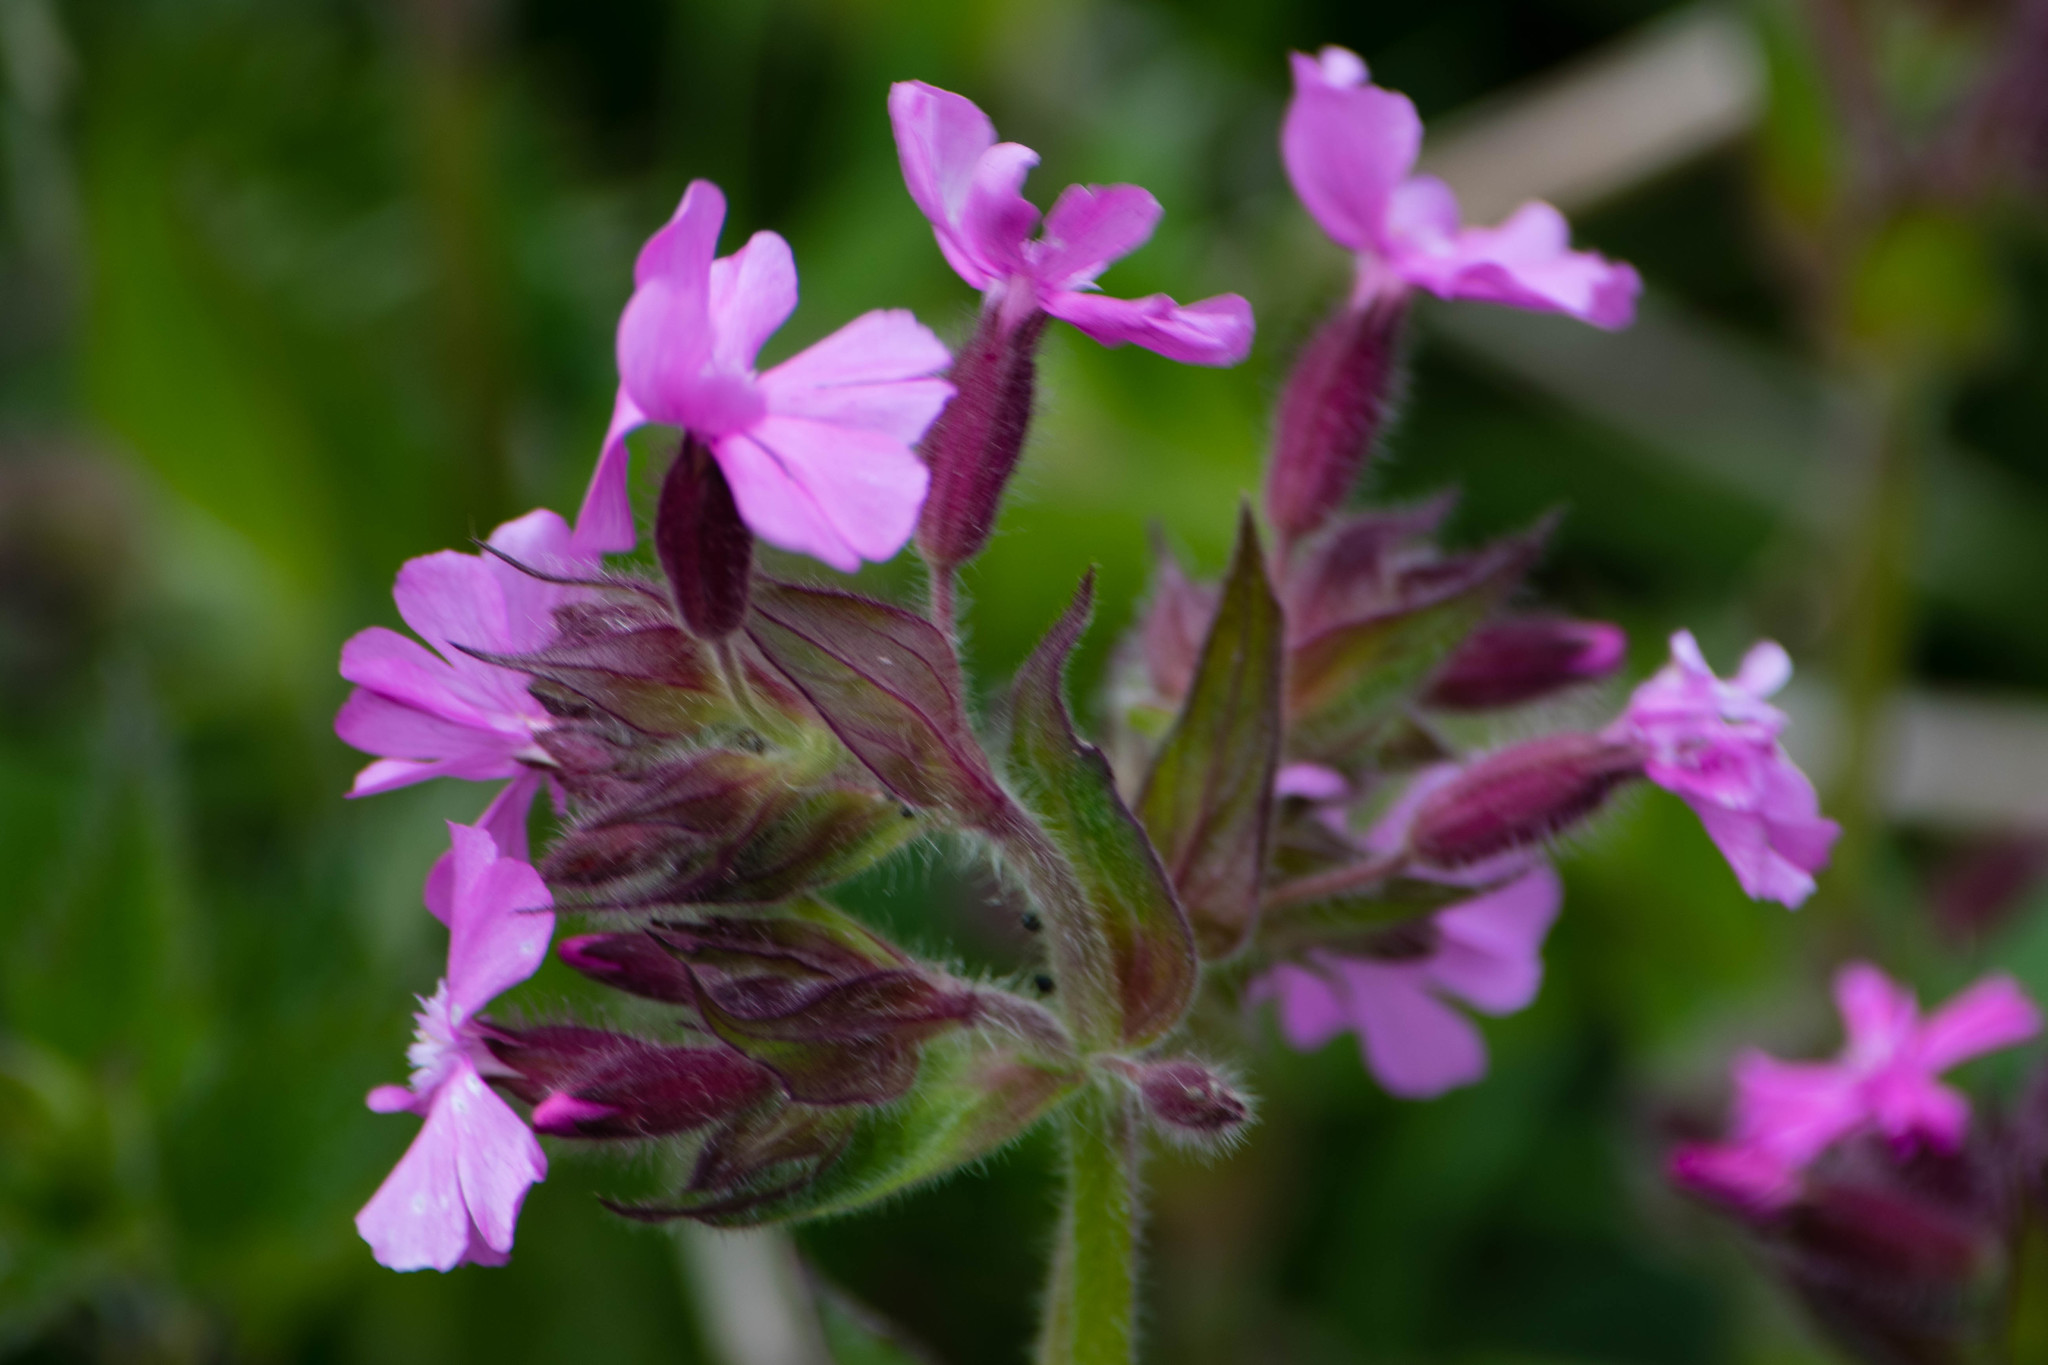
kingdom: Plantae
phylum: Tracheophyta
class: Magnoliopsida
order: Caryophyllales
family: Caryophyllaceae
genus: Silene
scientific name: Silene dioica
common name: Red campion
